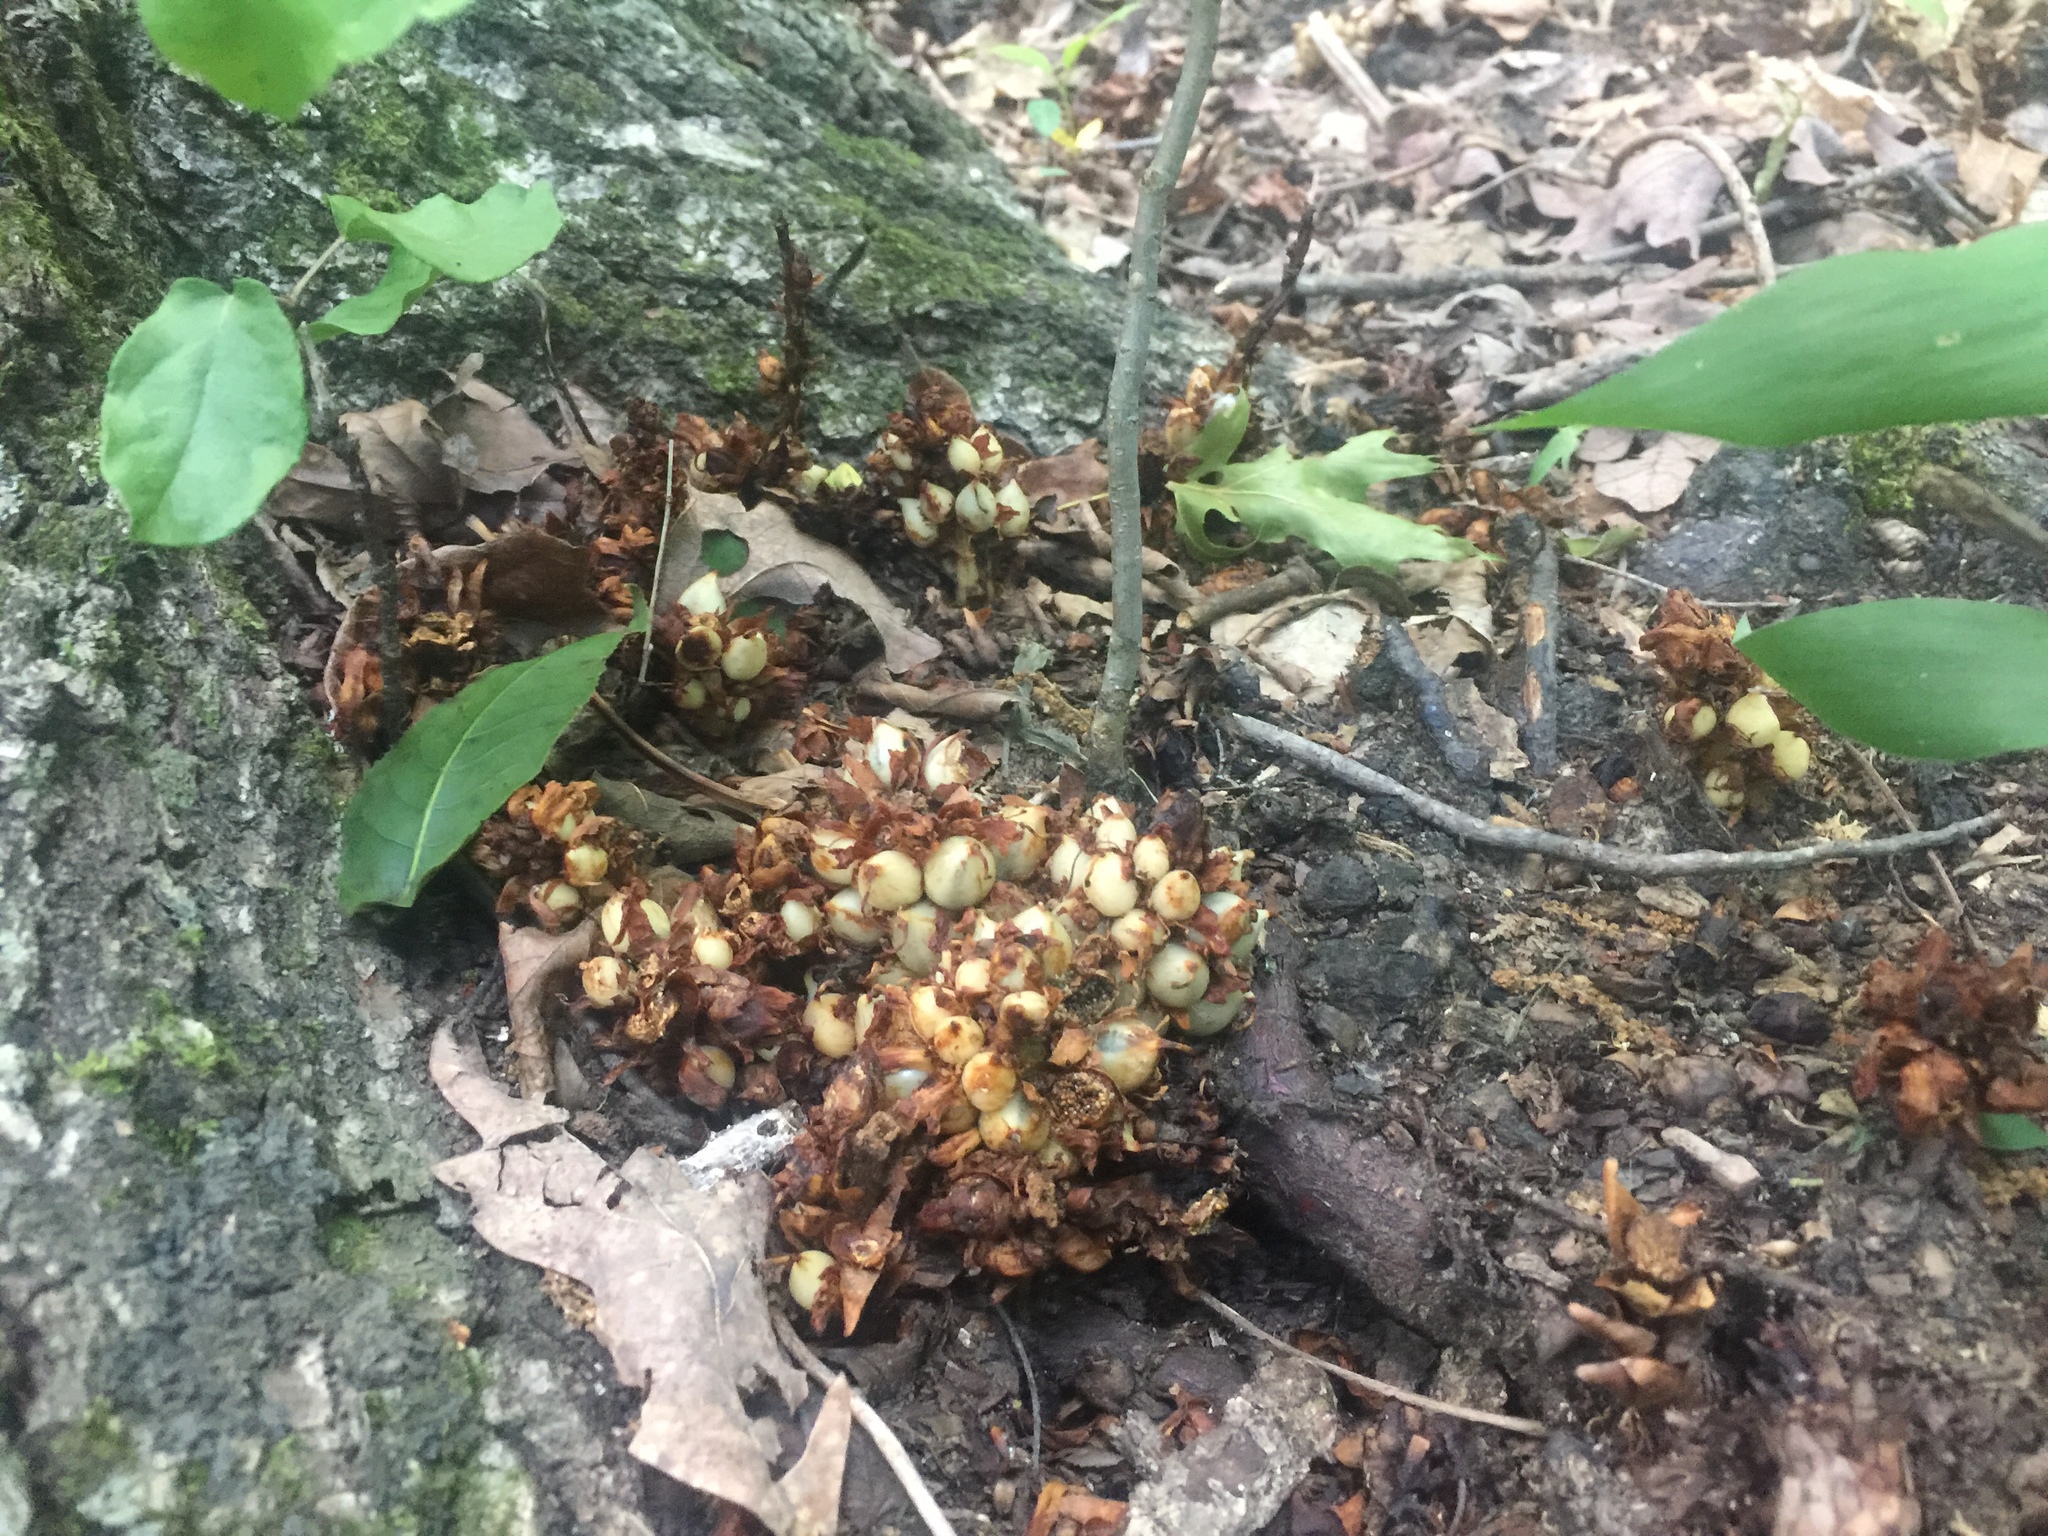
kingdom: Plantae
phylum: Tracheophyta
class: Magnoliopsida
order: Lamiales
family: Orobanchaceae
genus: Conopholis
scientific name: Conopholis americana
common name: American cancer-root
